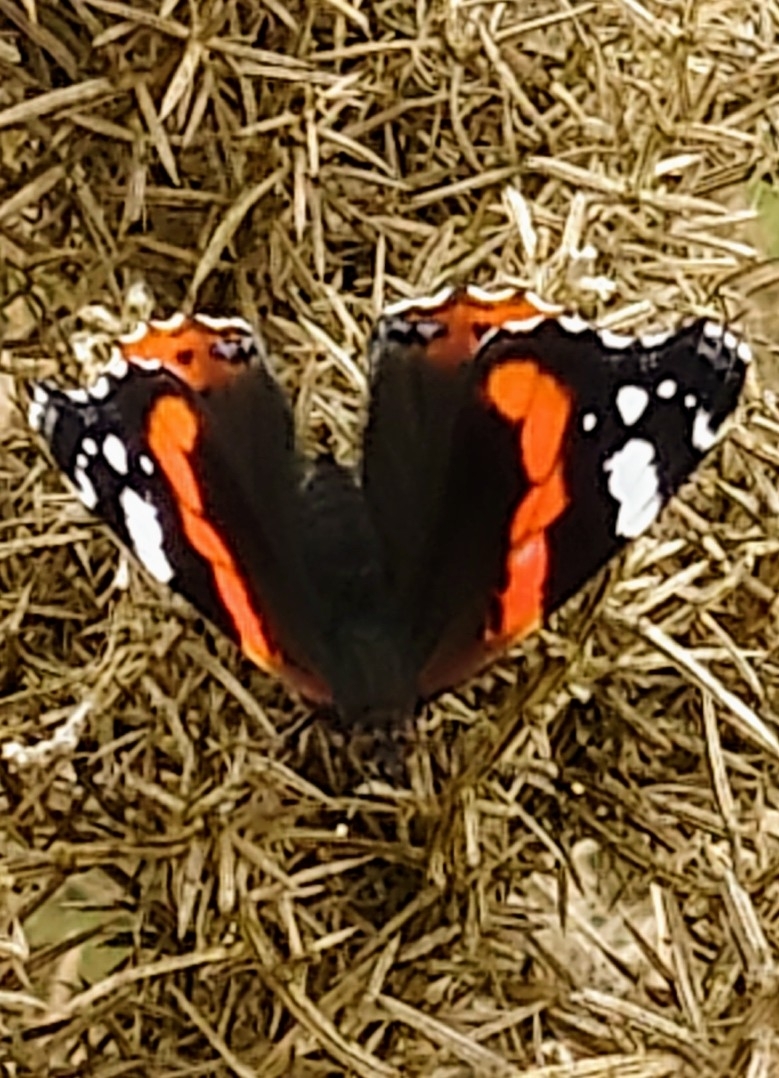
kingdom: Animalia
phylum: Arthropoda
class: Insecta
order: Lepidoptera
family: Nymphalidae
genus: Vanessa
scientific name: Vanessa atalanta
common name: Red admiral
